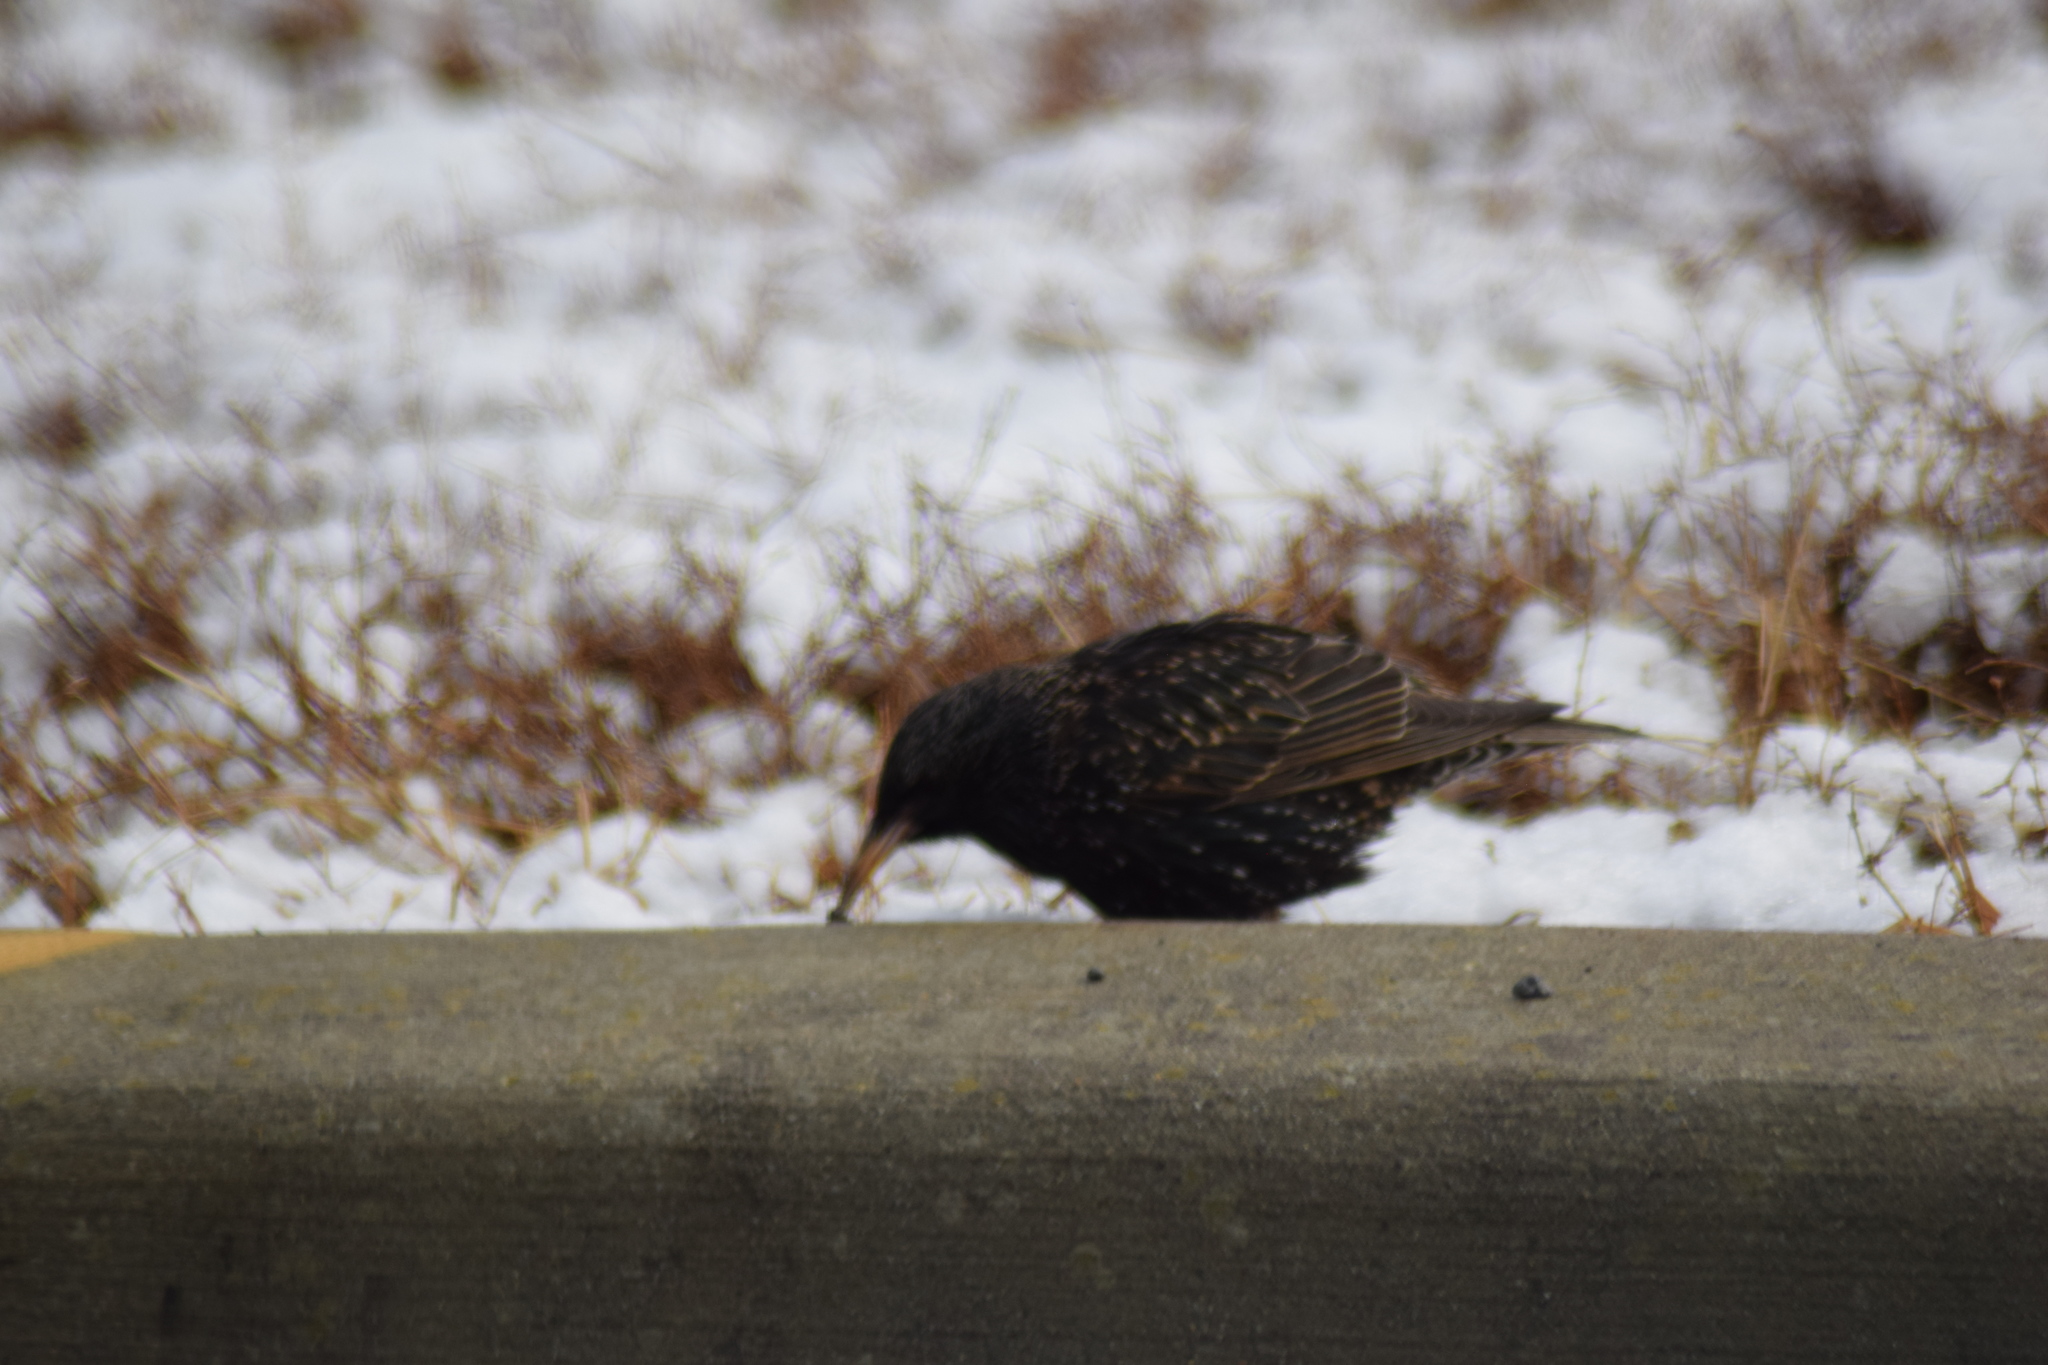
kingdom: Animalia
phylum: Chordata
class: Aves
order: Passeriformes
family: Sturnidae
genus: Sturnus
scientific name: Sturnus vulgaris
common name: Common starling
